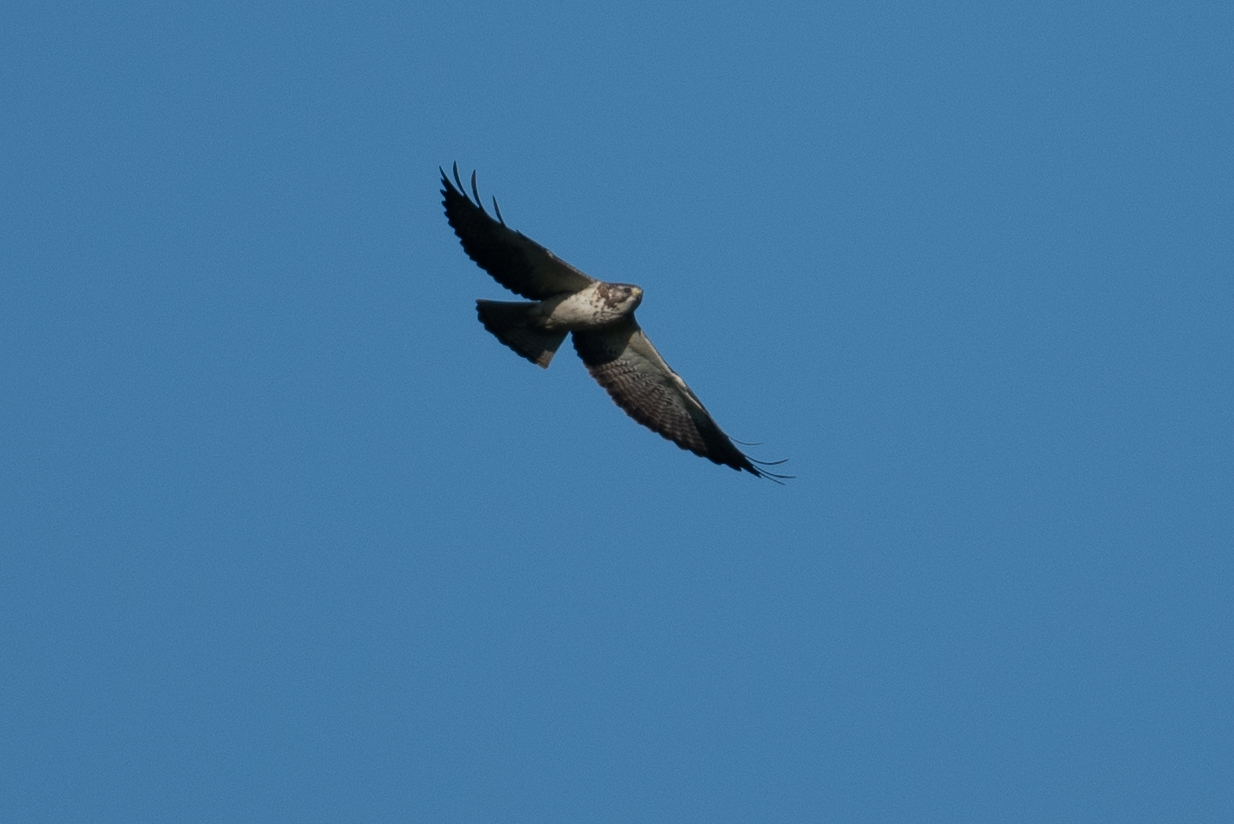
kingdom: Animalia
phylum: Chordata
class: Aves
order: Accipitriformes
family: Accipitridae
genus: Buteo
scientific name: Buteo swainsoni
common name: Swainson's hawk
